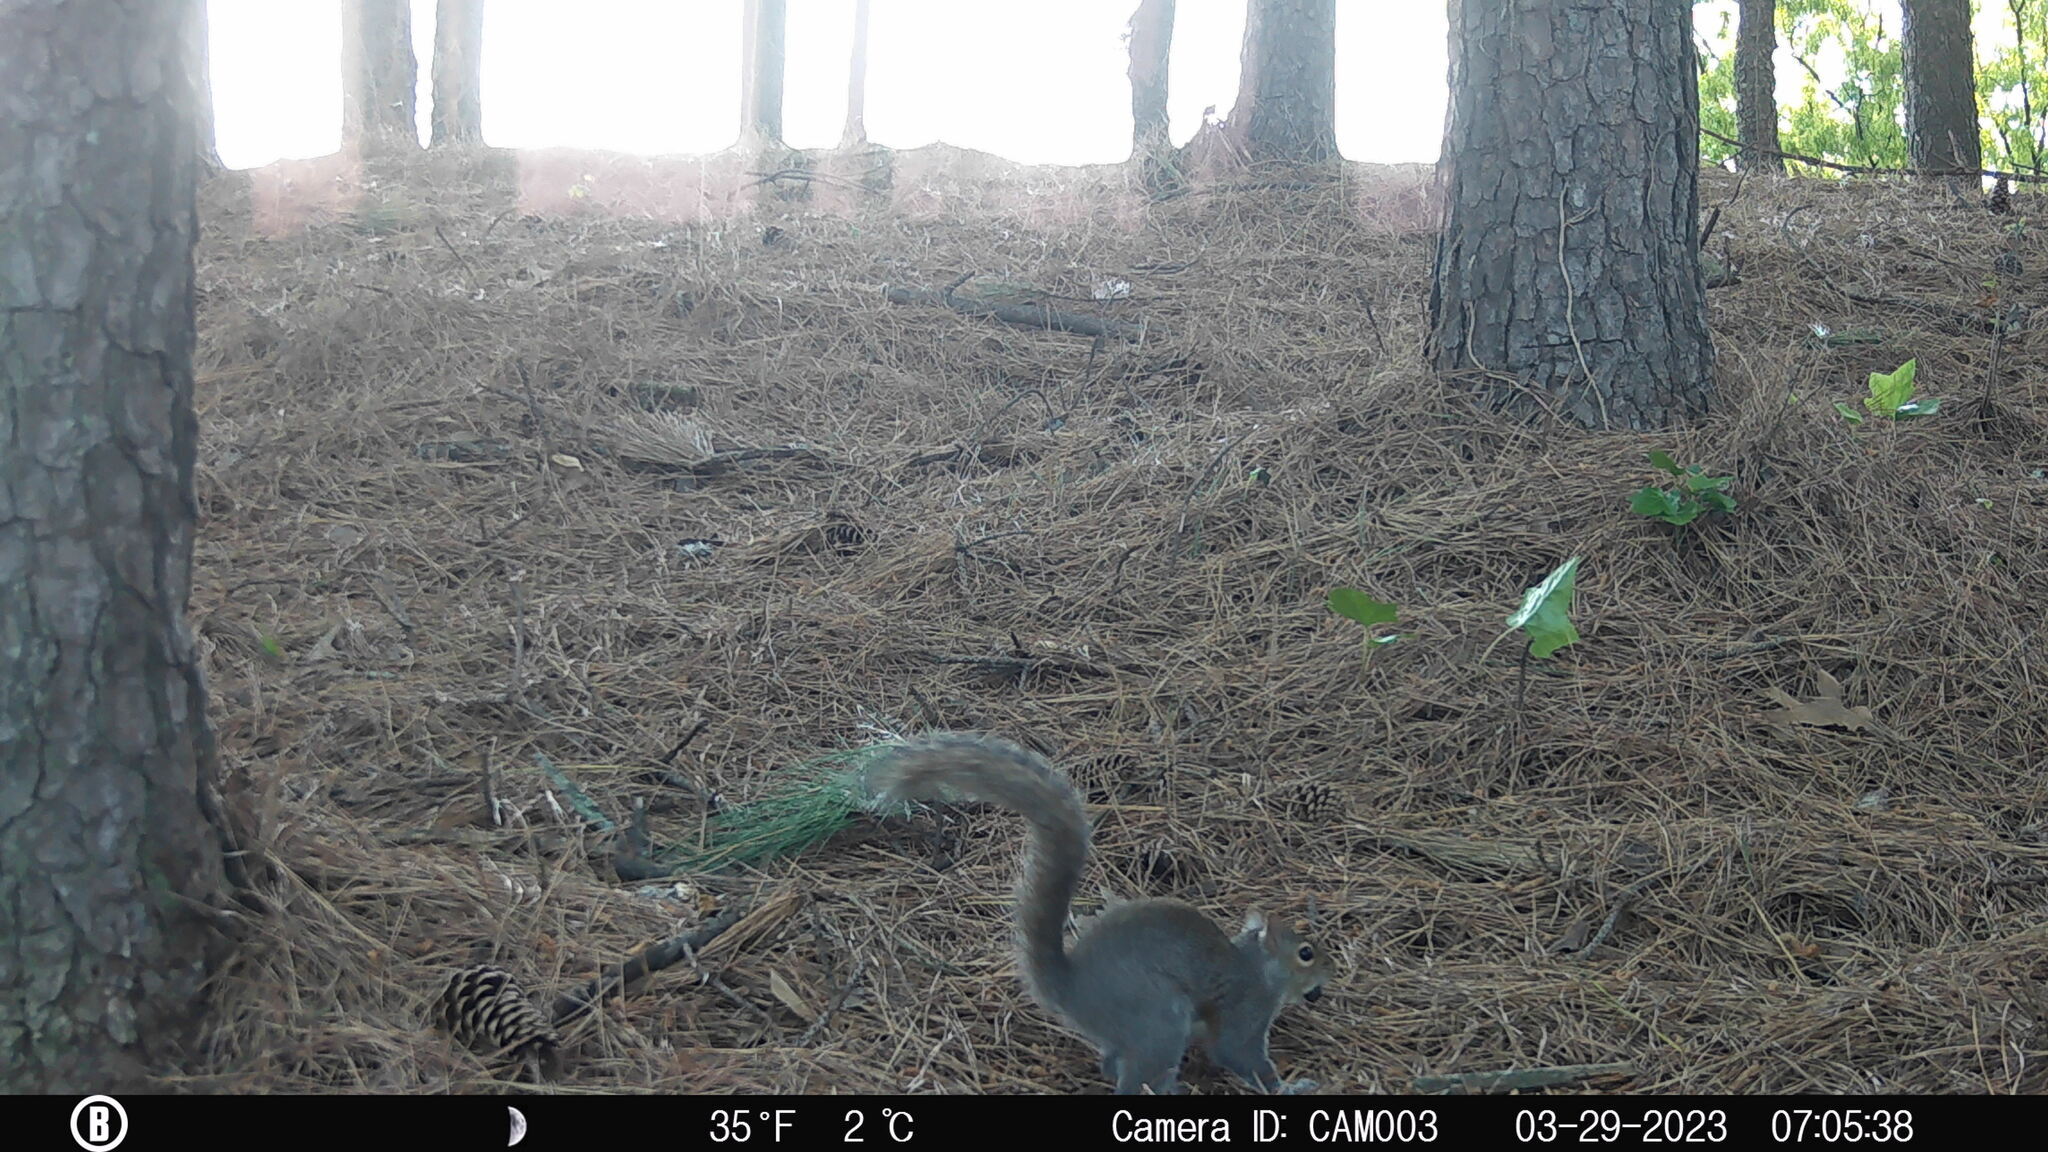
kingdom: Animalia
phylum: Chordata
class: Mammalia
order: Rodentia
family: Sciuridae
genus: Sciurus
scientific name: Sciurus carolinensis
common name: Eastern gray squirrel
